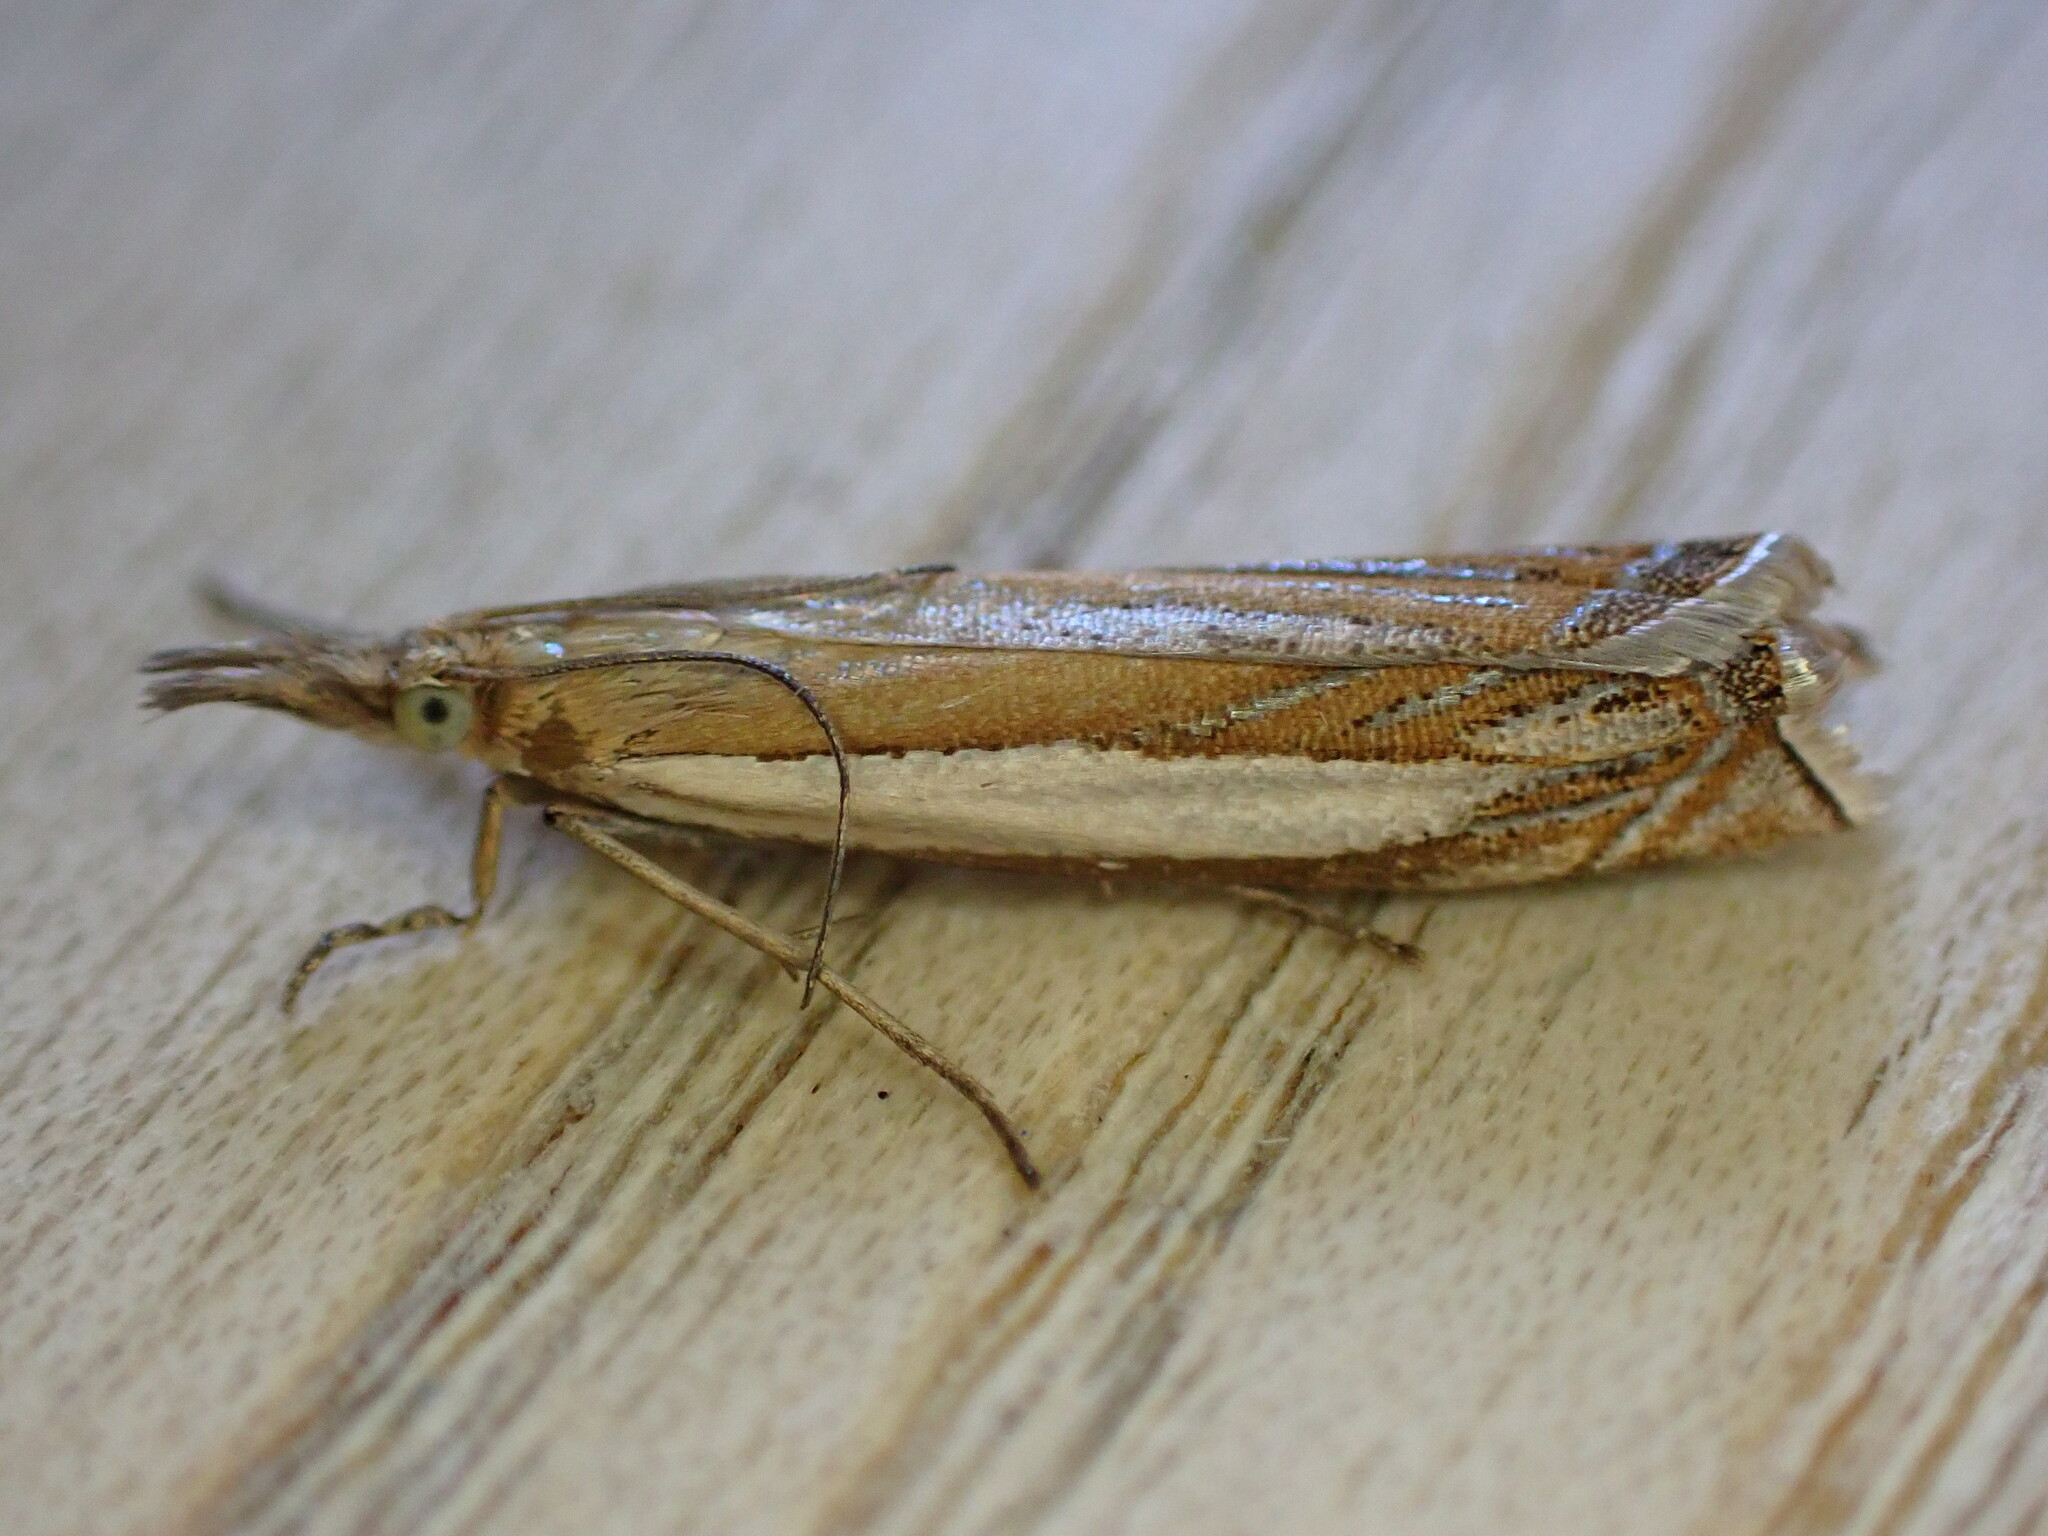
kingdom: Animalia
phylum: Arthropoda
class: Insecta
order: Lepidoptera
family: Crambidae
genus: Crambus
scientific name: Crambus pascuella
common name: Inlaid grass-veneer
